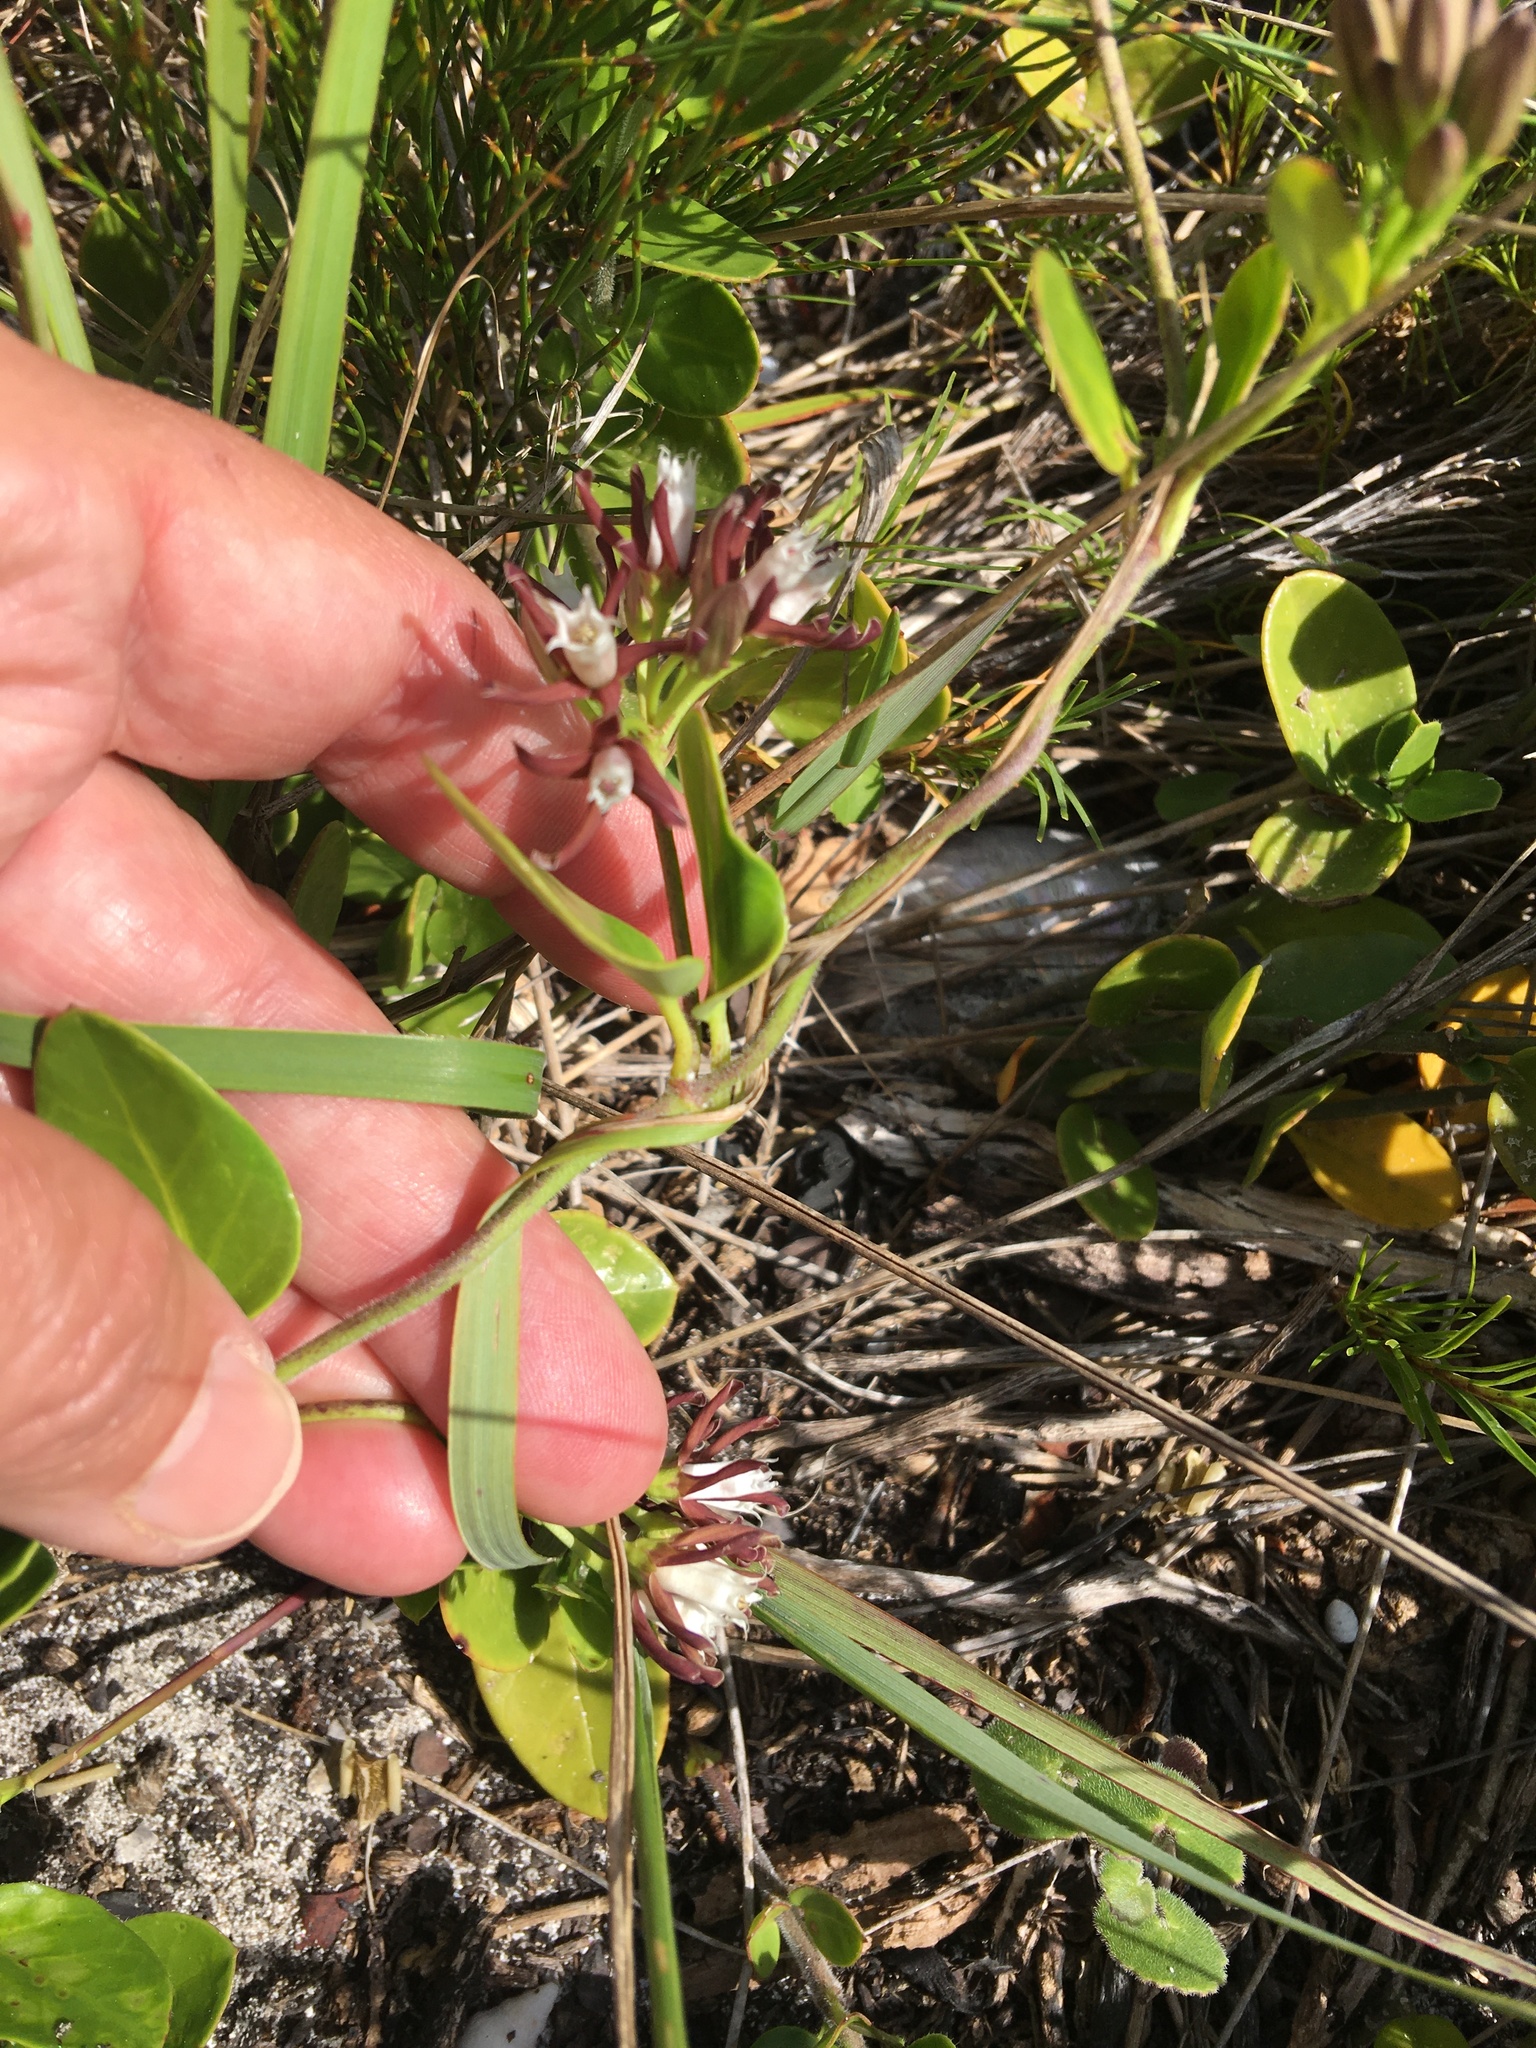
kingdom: Plantae
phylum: Tracheophyta
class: Magnoliopsida
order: Gentianales
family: Apocynaceae
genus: Cynanchum
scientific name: Cynanchum africanum
